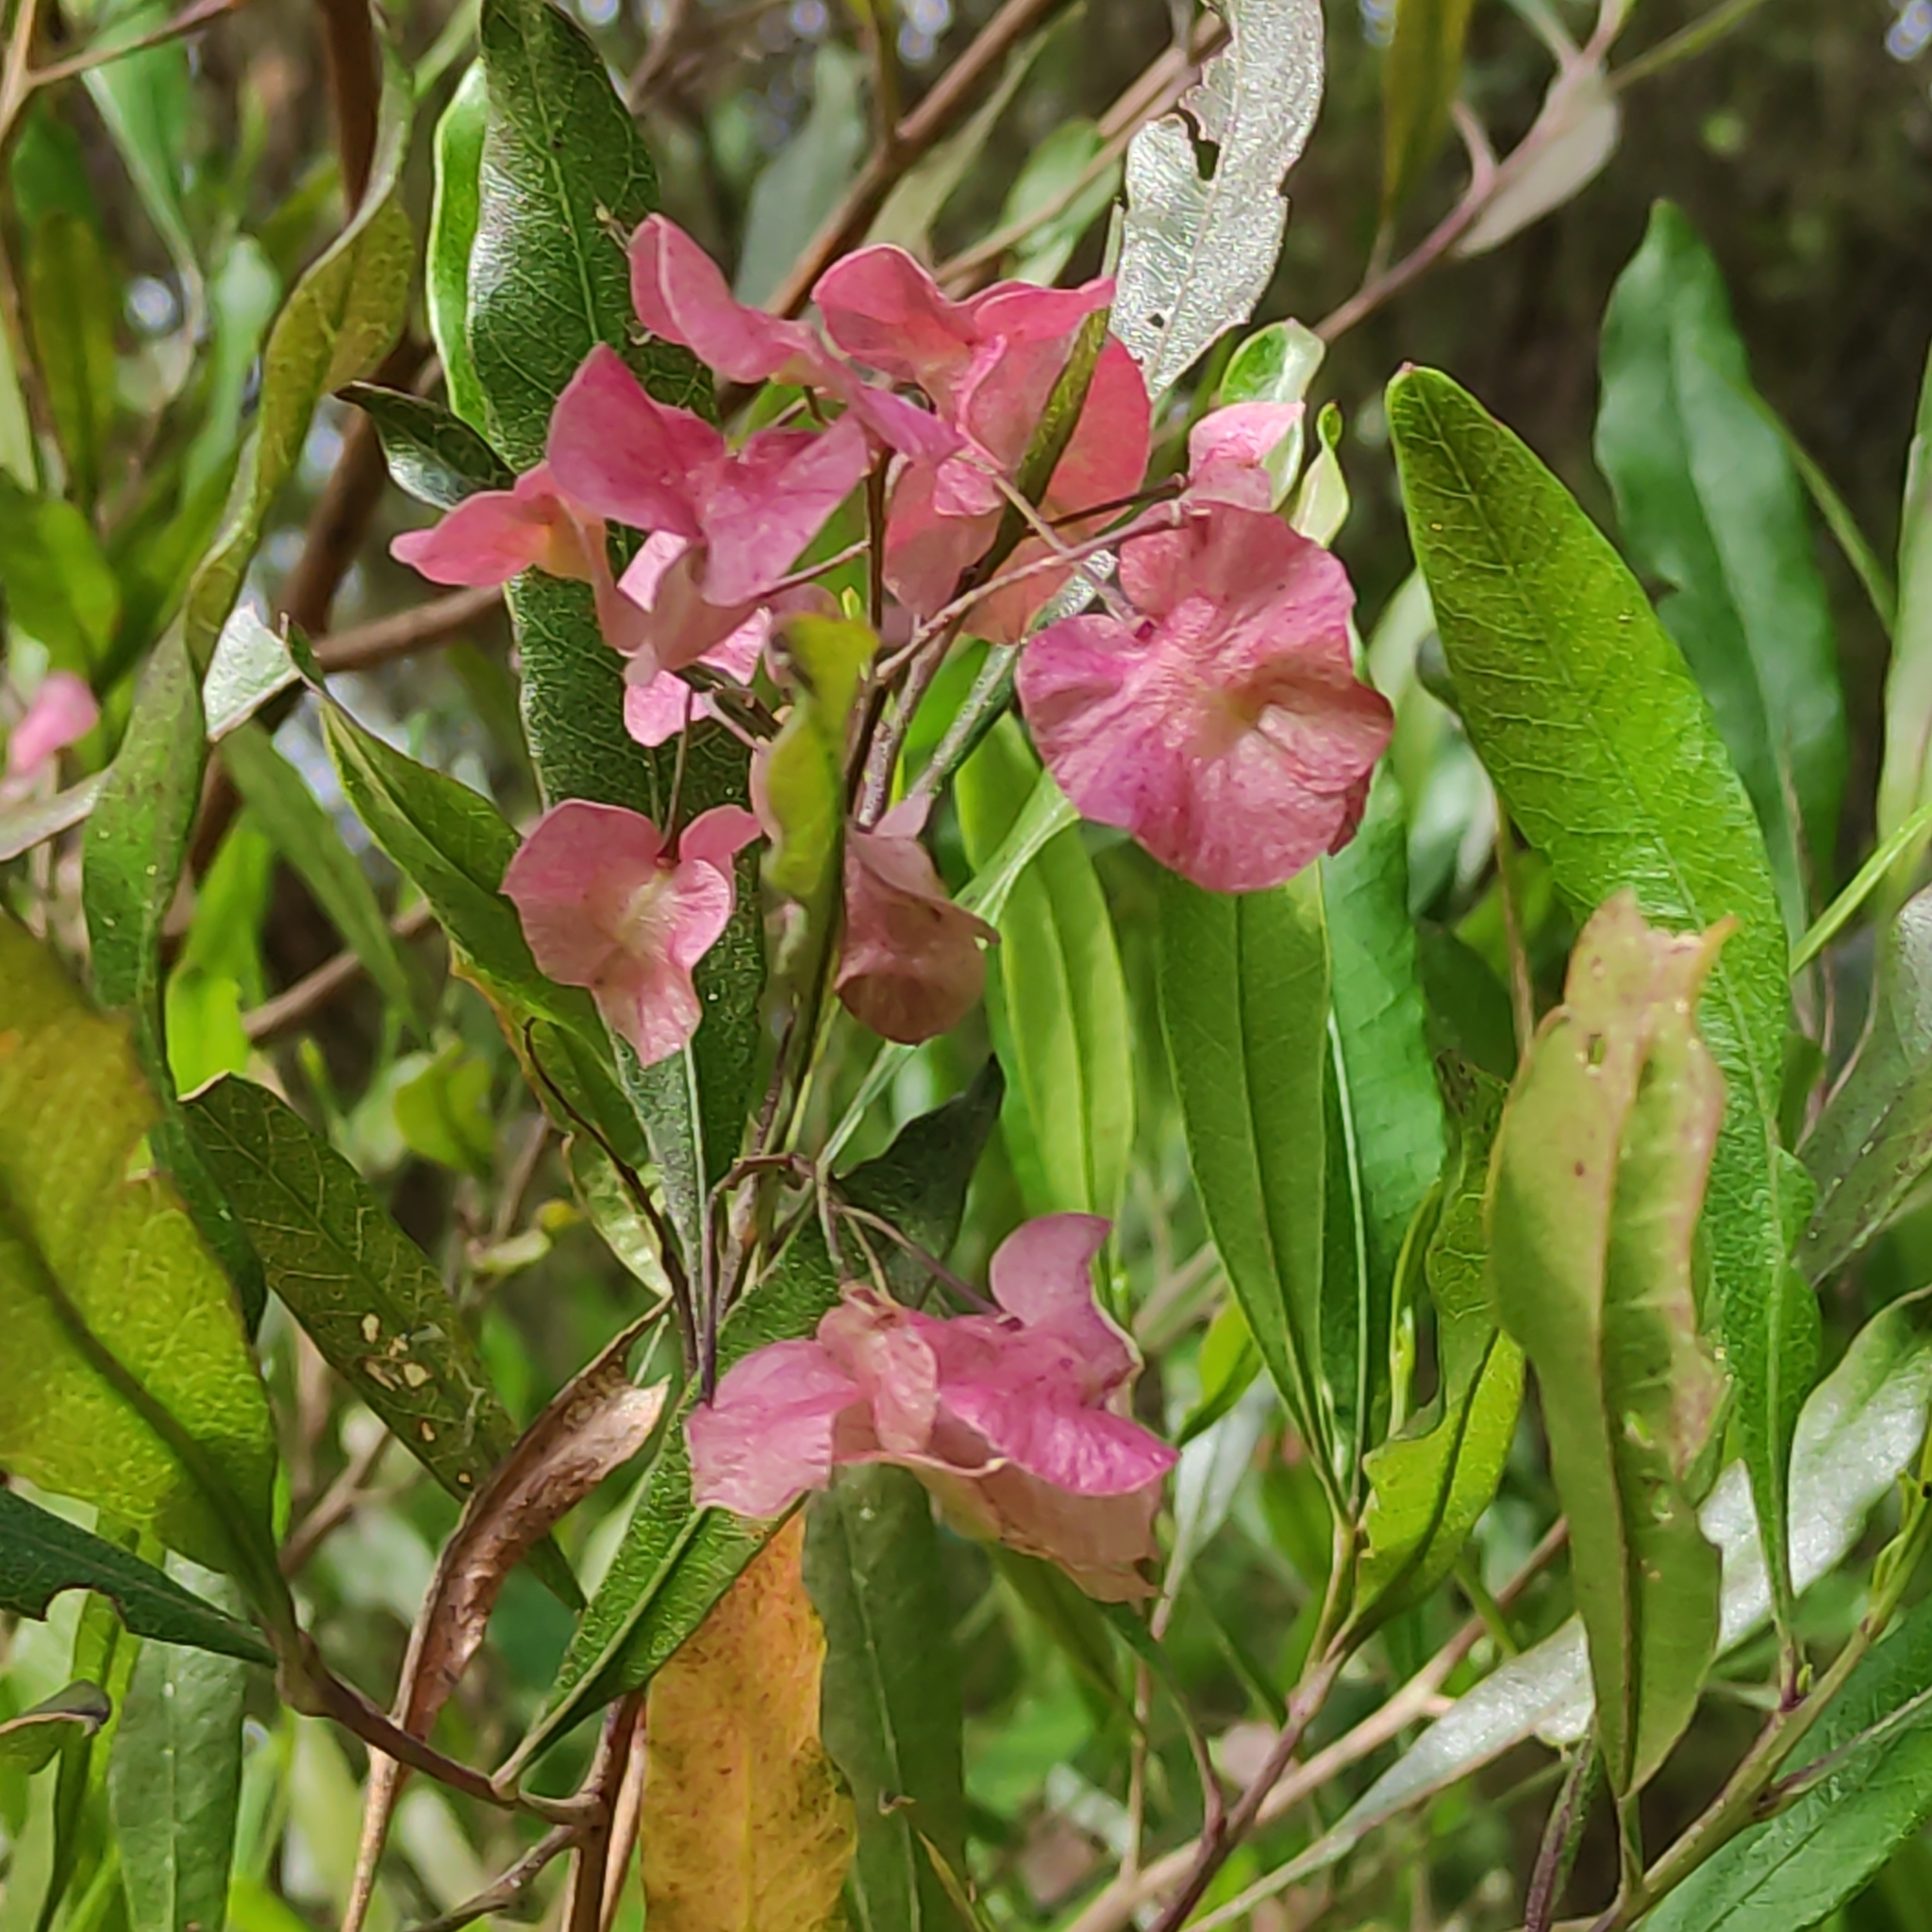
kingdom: Plantae
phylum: Tracheophyta
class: Magnoliopsida
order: Sapindales
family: Sapindaceae
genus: Dodonaea
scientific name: Dodonaea viscosa
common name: Hopbush
